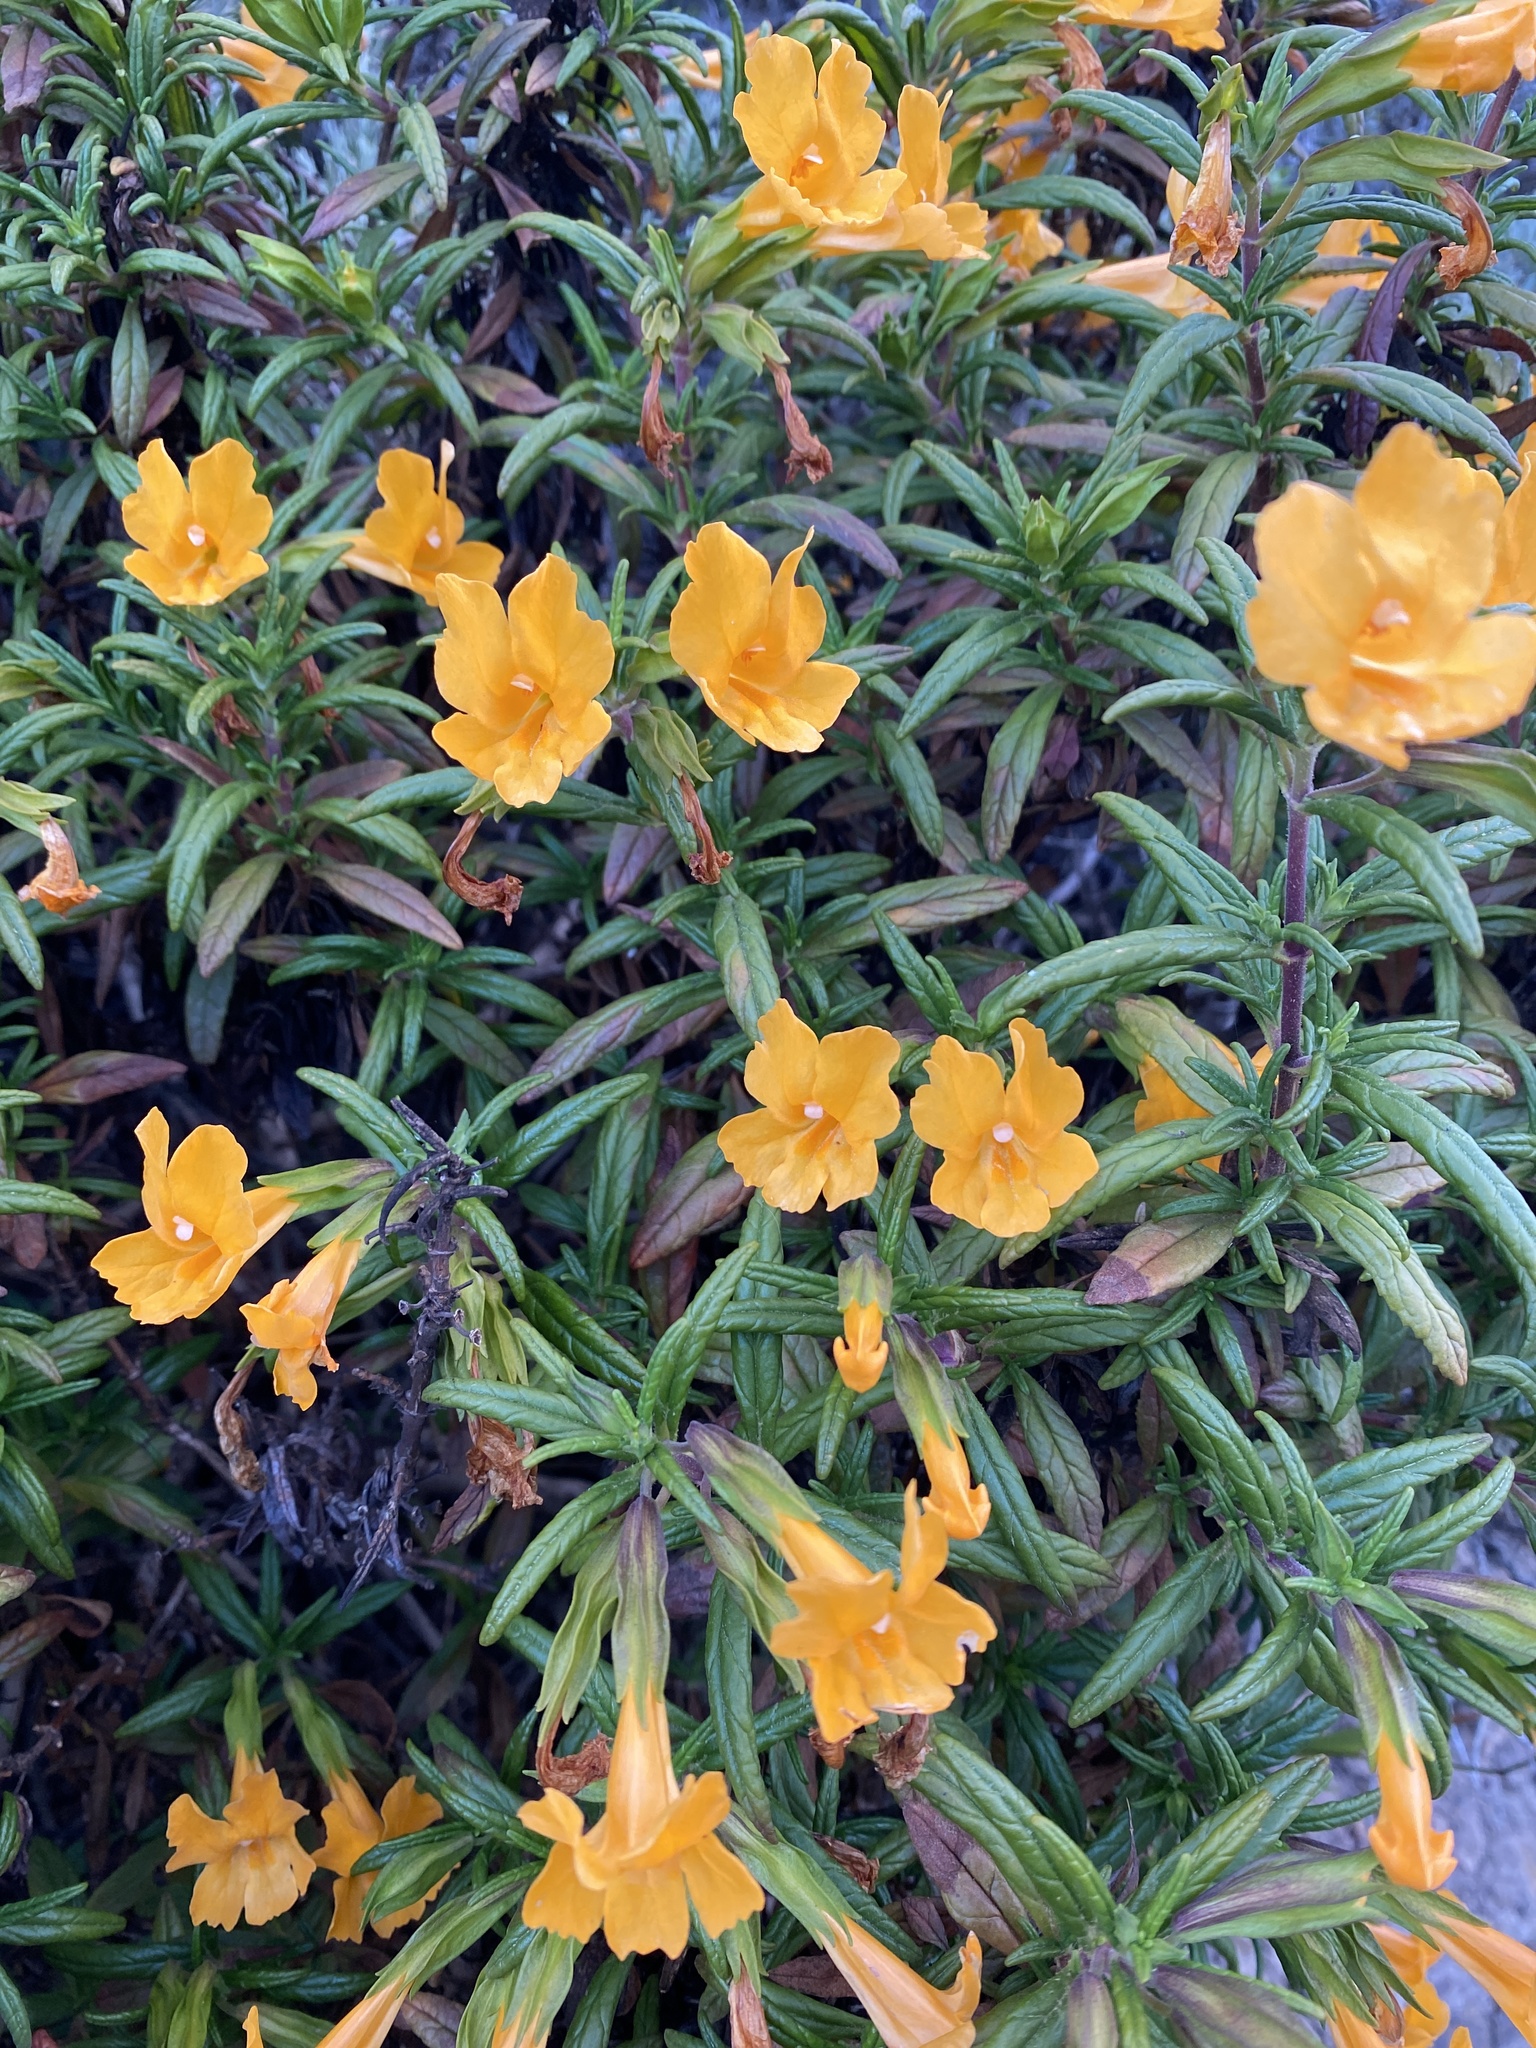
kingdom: Plantae
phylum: Tracheophyta
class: Magnoliopsida
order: Lamiales
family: Phrymaceae
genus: Diplacus
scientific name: Diplacus aurantiacus
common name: Bush monkey-flower
